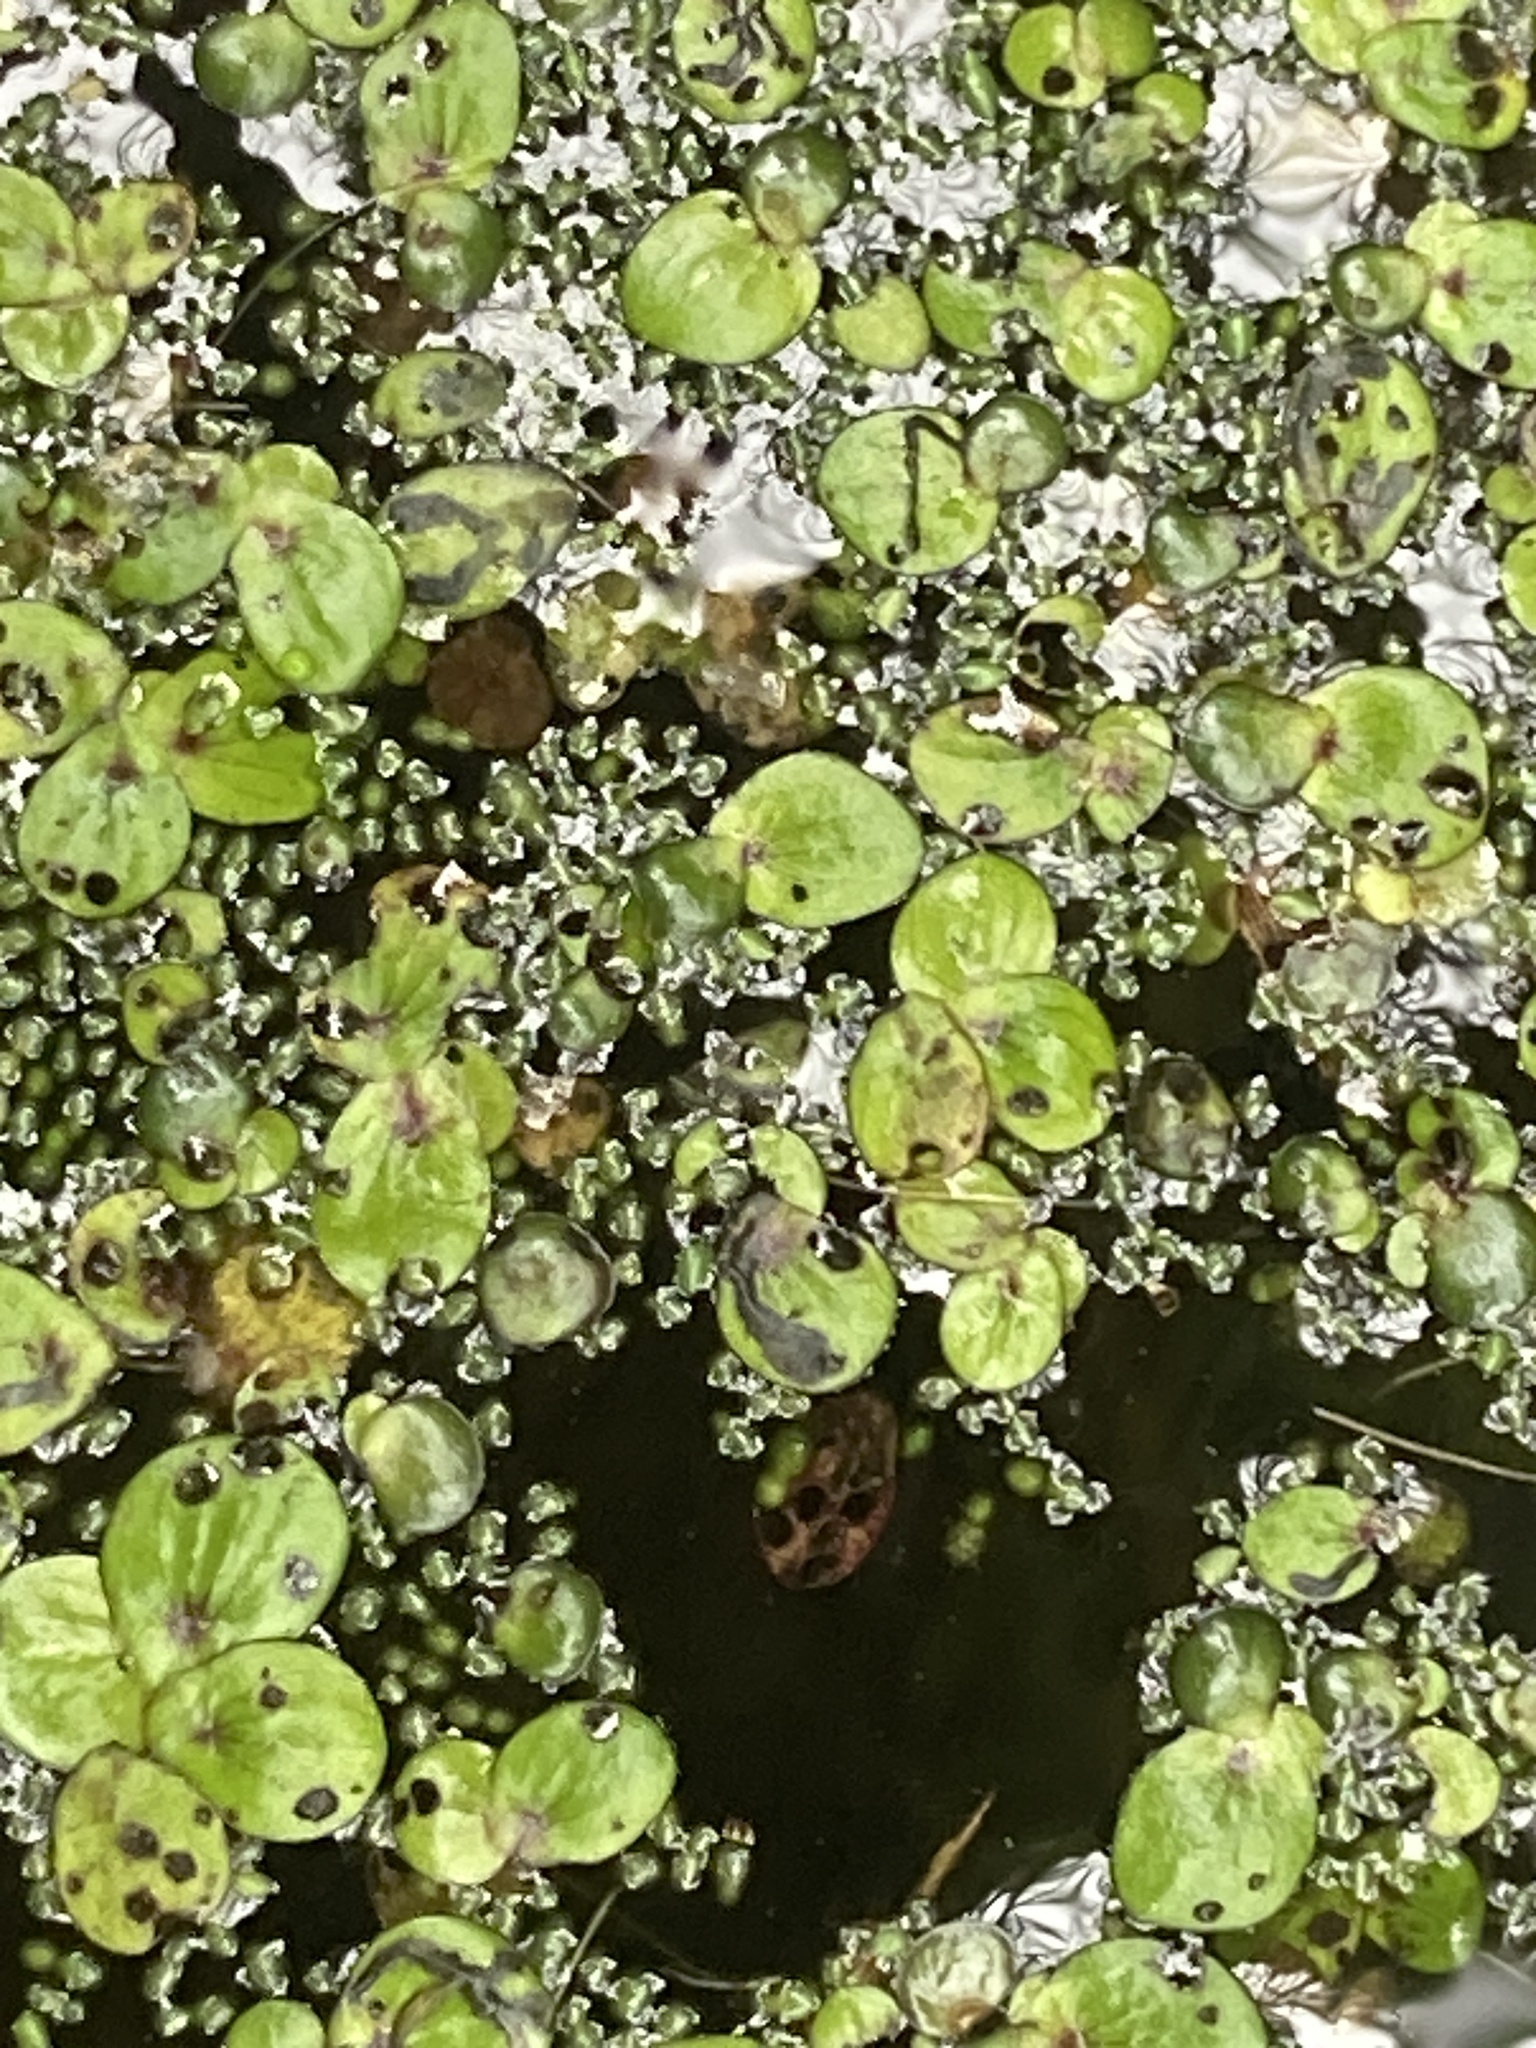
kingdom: Plantae
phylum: Tracheophyta
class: Liliopsida
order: Alismatales
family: Araceae
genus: Wolffia
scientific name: Wolffia columbiana
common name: Columbia watermeal
